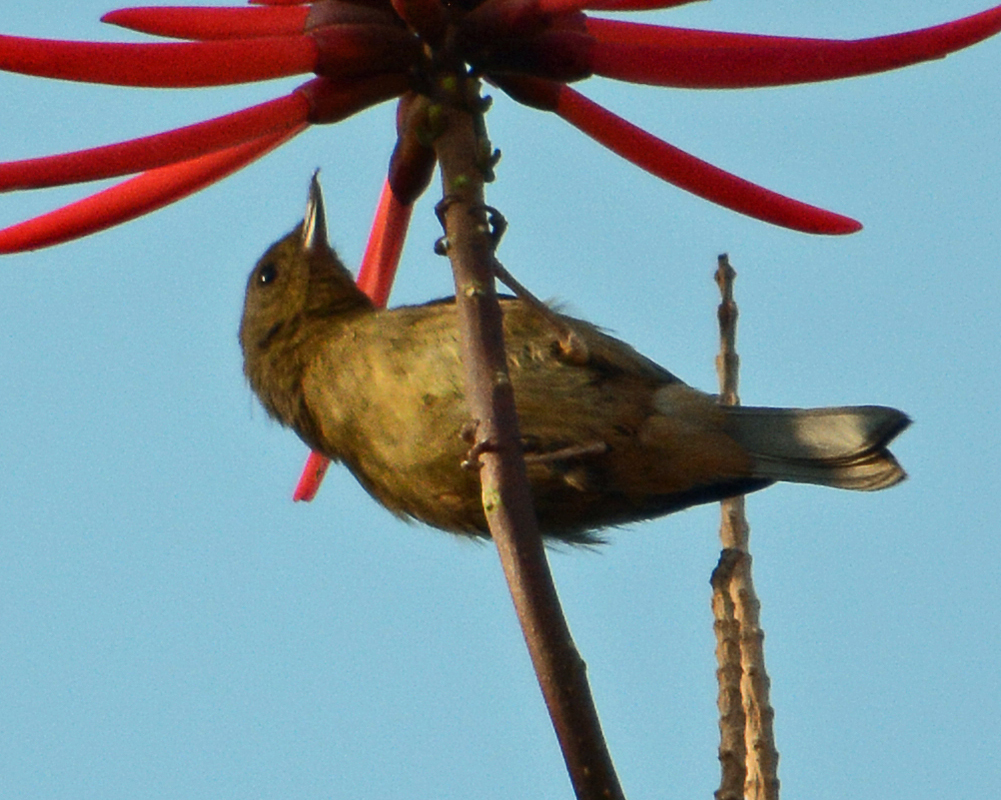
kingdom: Animalia
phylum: Chordata
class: Aves
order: Passeriformes
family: Thraupidae
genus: Diglossa
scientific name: Diglossa baritula
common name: Cinnamon-bellied flowerpiercer
